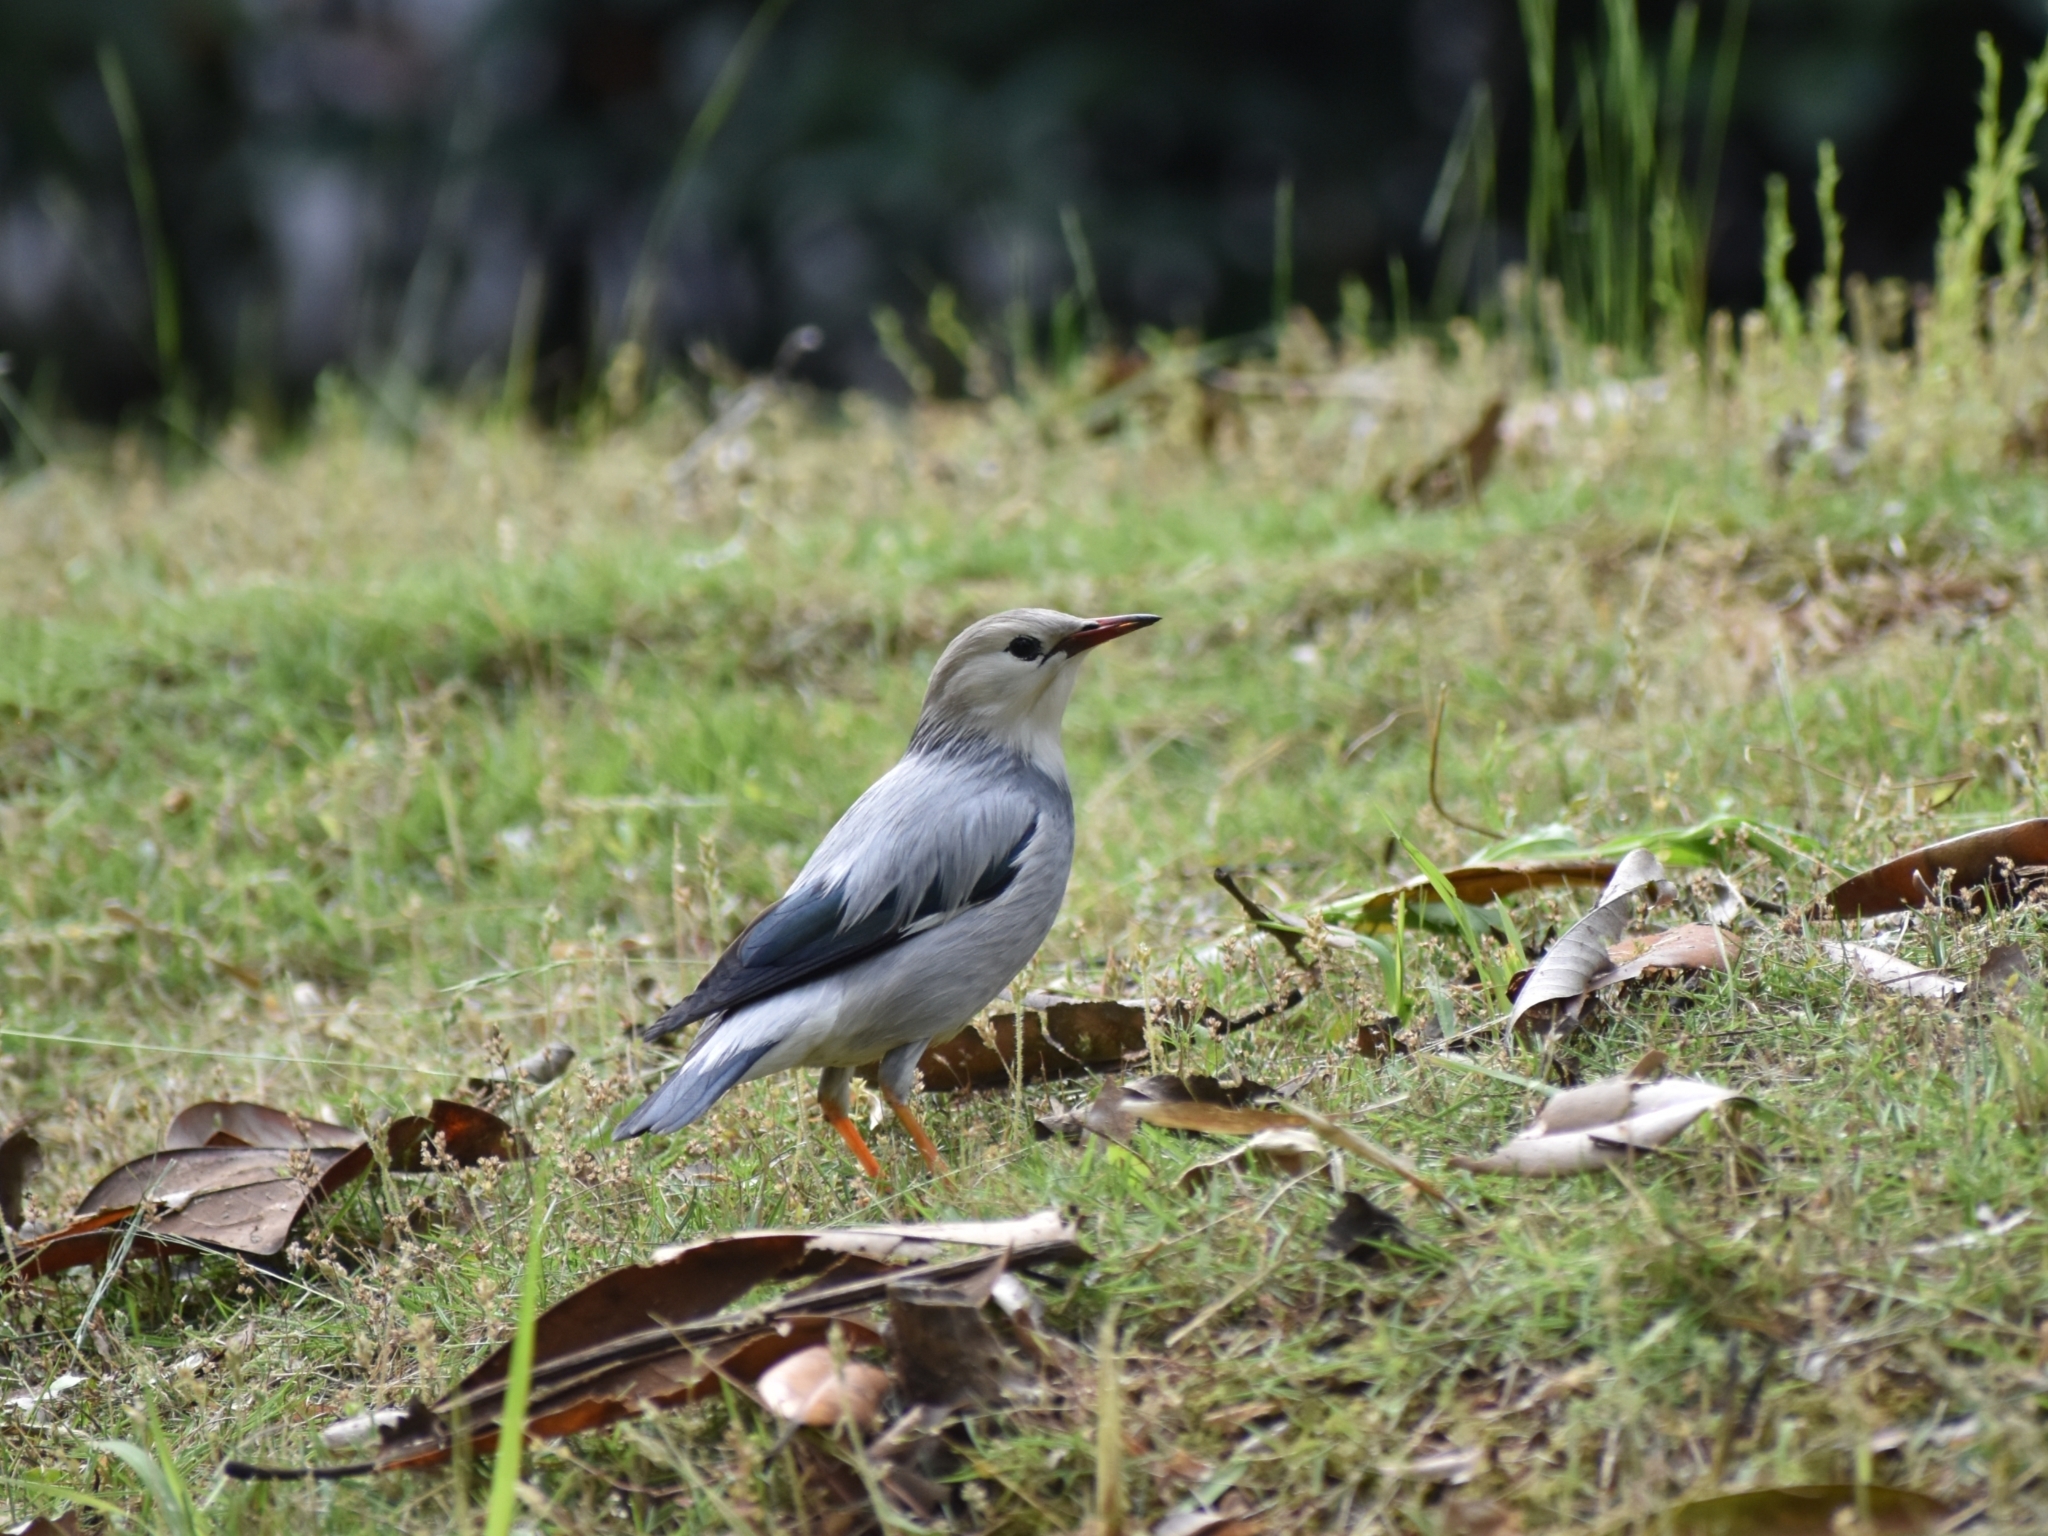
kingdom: Animalia
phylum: Chordata
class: Aves
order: Passeriformes
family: Sturnidae
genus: Spodiopsar
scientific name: Spodiopsar sericeus
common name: Red-billed starling
